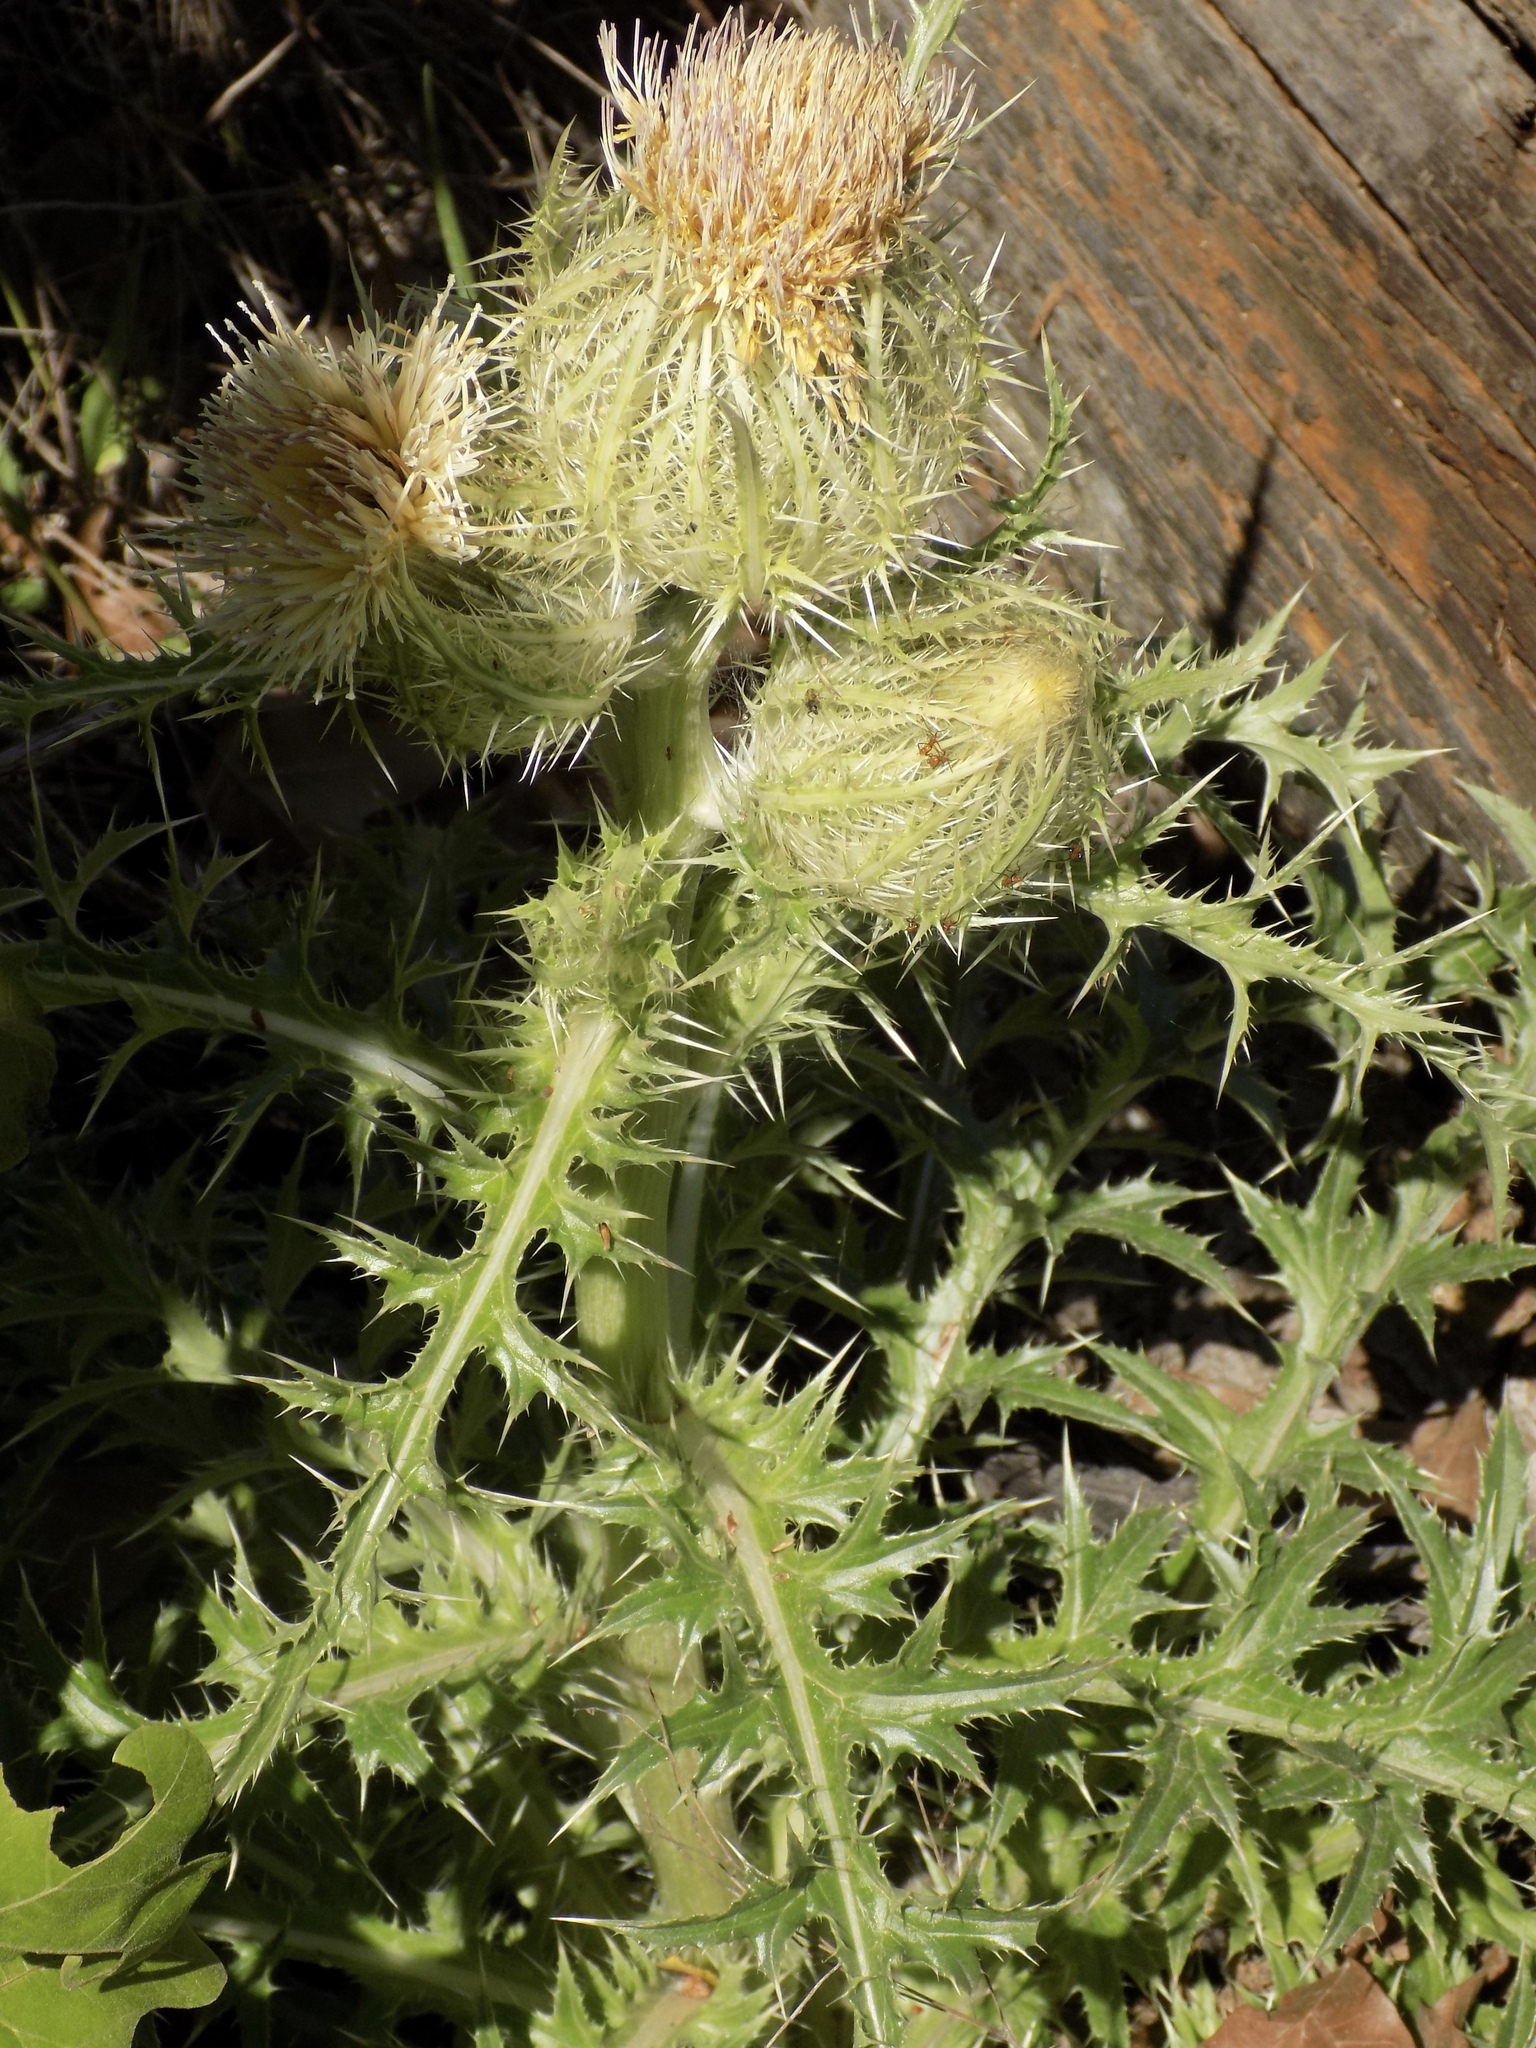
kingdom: Plantae
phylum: Tracheophyta
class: Magnoliopsida
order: Asterales
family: Asteraceae
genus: Cirsium
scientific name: Cirsium horridulum
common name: Bristly thistle
